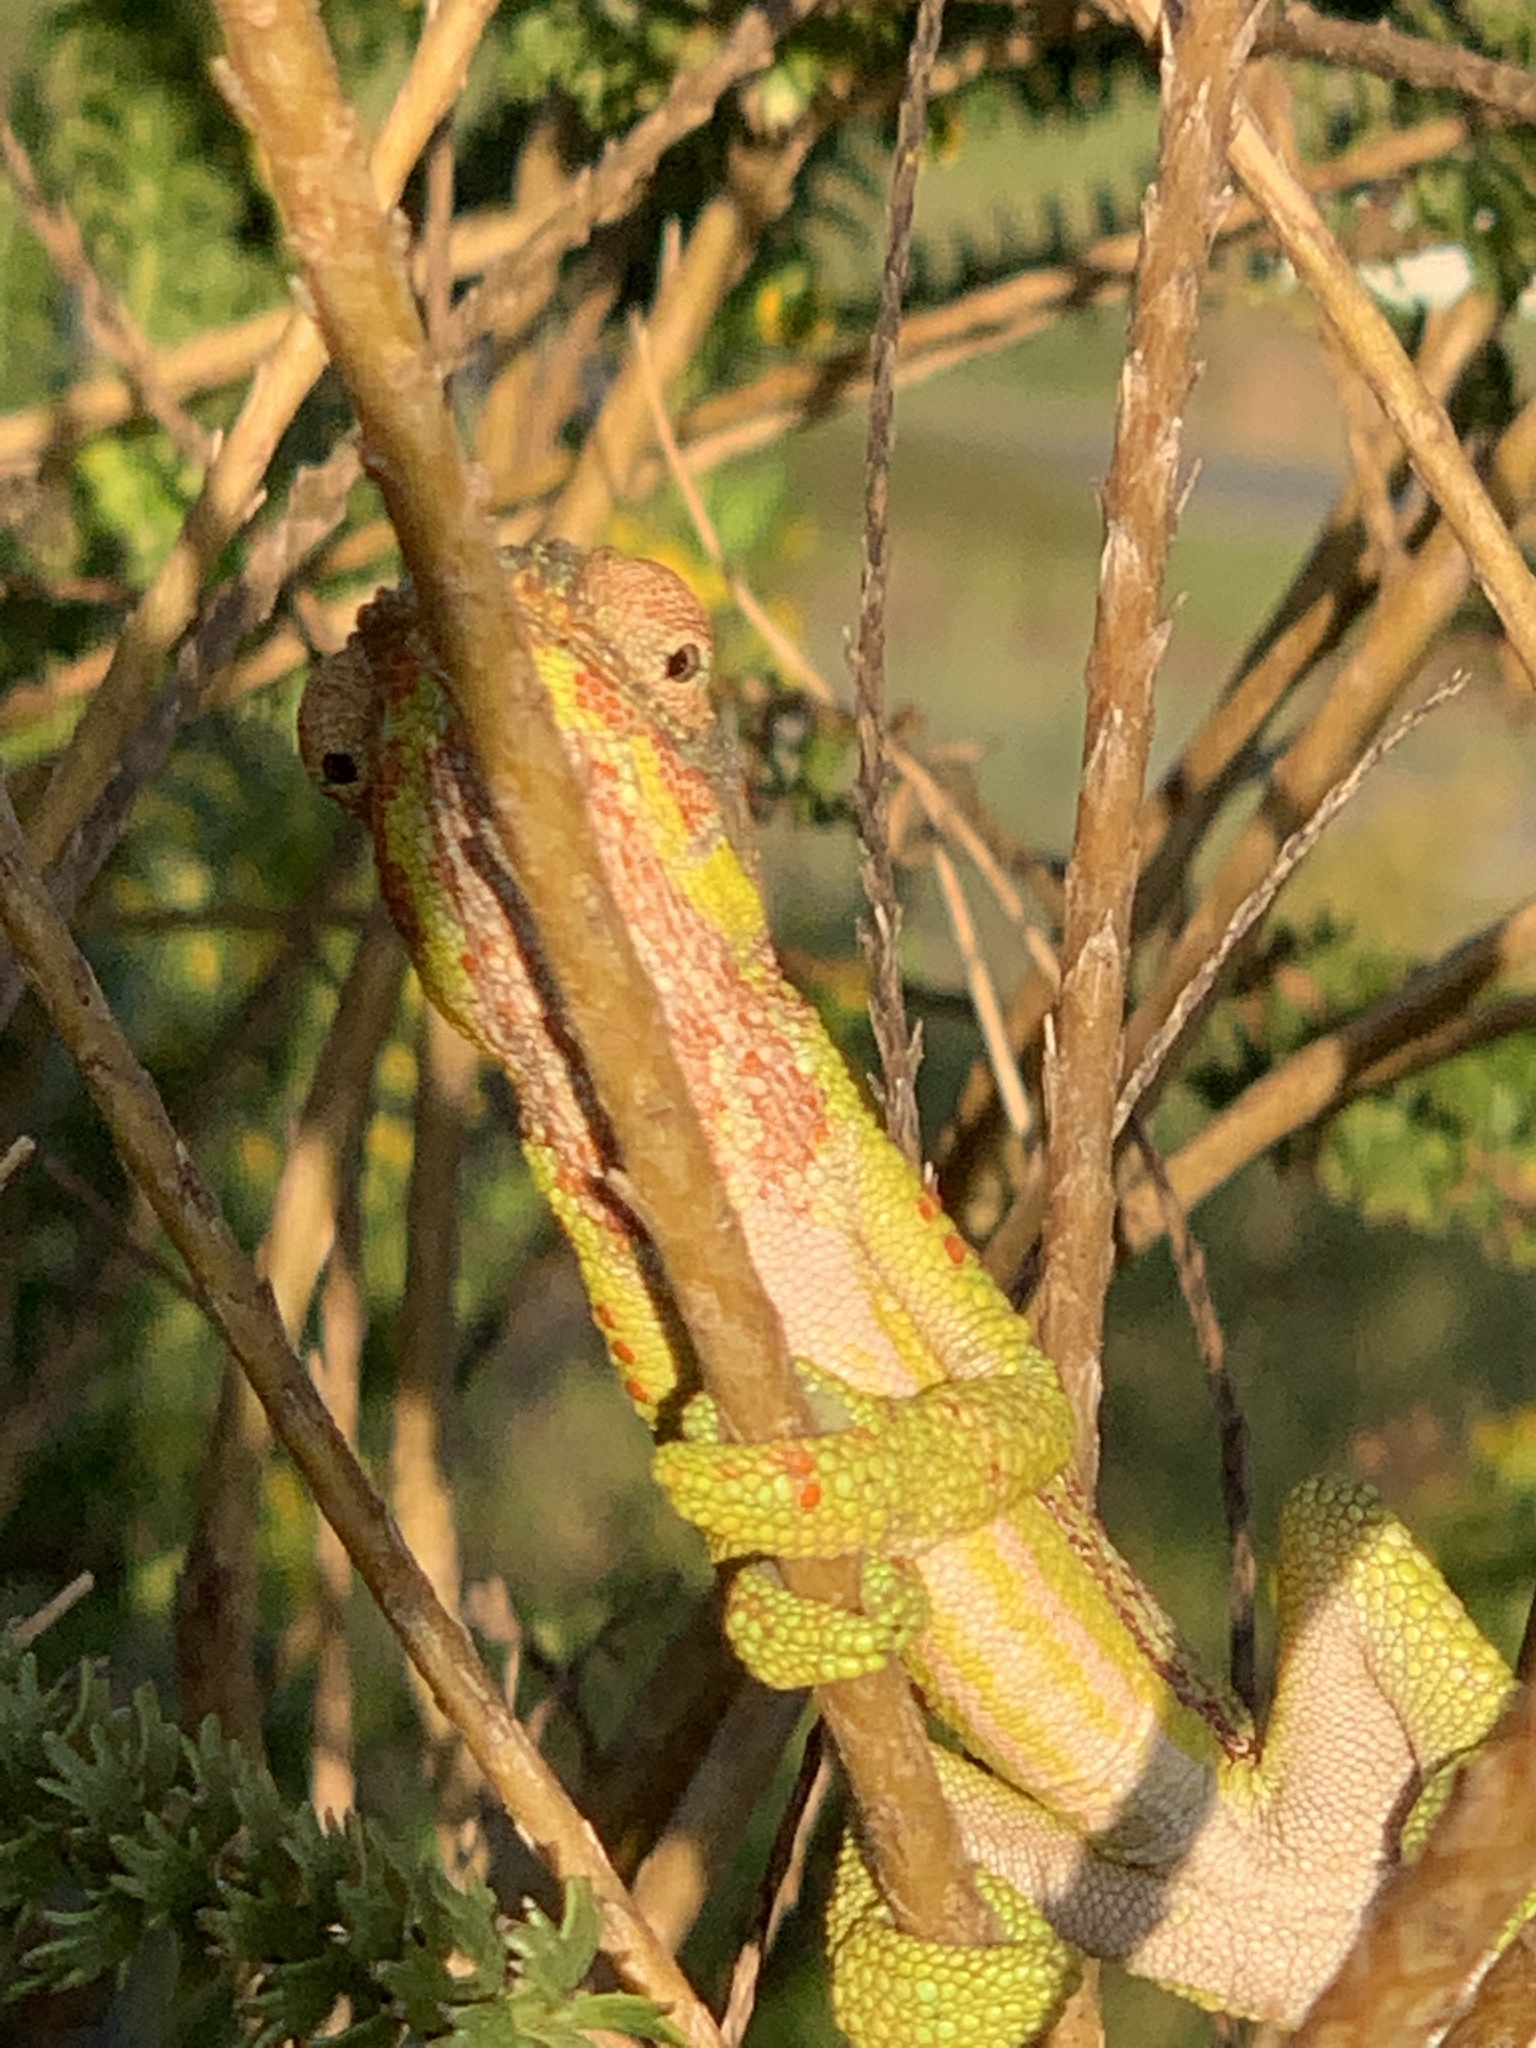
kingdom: Animalia
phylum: Chordata
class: Squamata
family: Chamaeleonidae
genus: Bradypodion
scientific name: Bradypodion pumilum
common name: Cape dwarf chameleon
